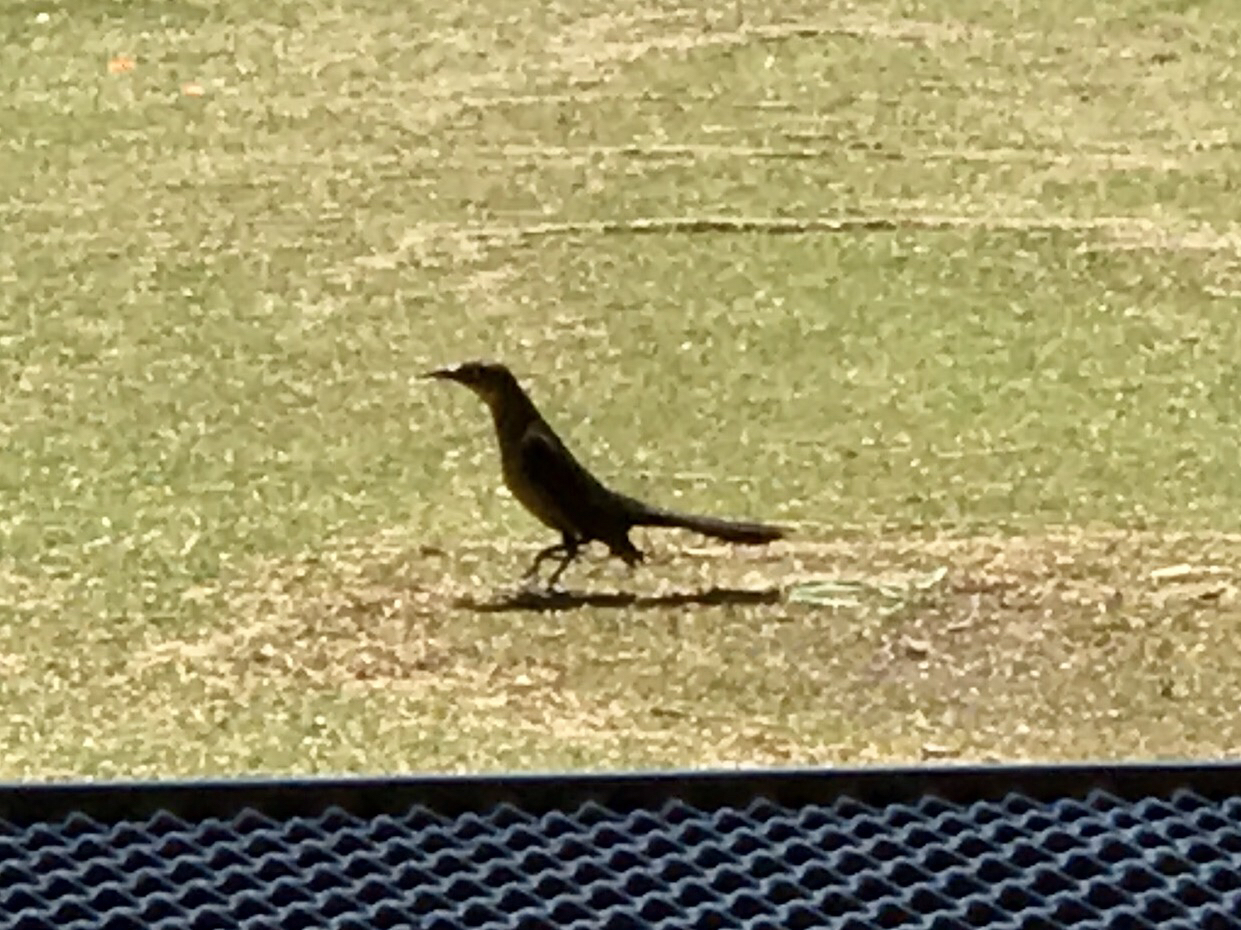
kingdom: Animalia
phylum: Chordata
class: Aves
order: Passeriformes
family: Icteridae
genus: Quiscalus
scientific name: Quiscalus mexicanus
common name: Great-tailed grackle
